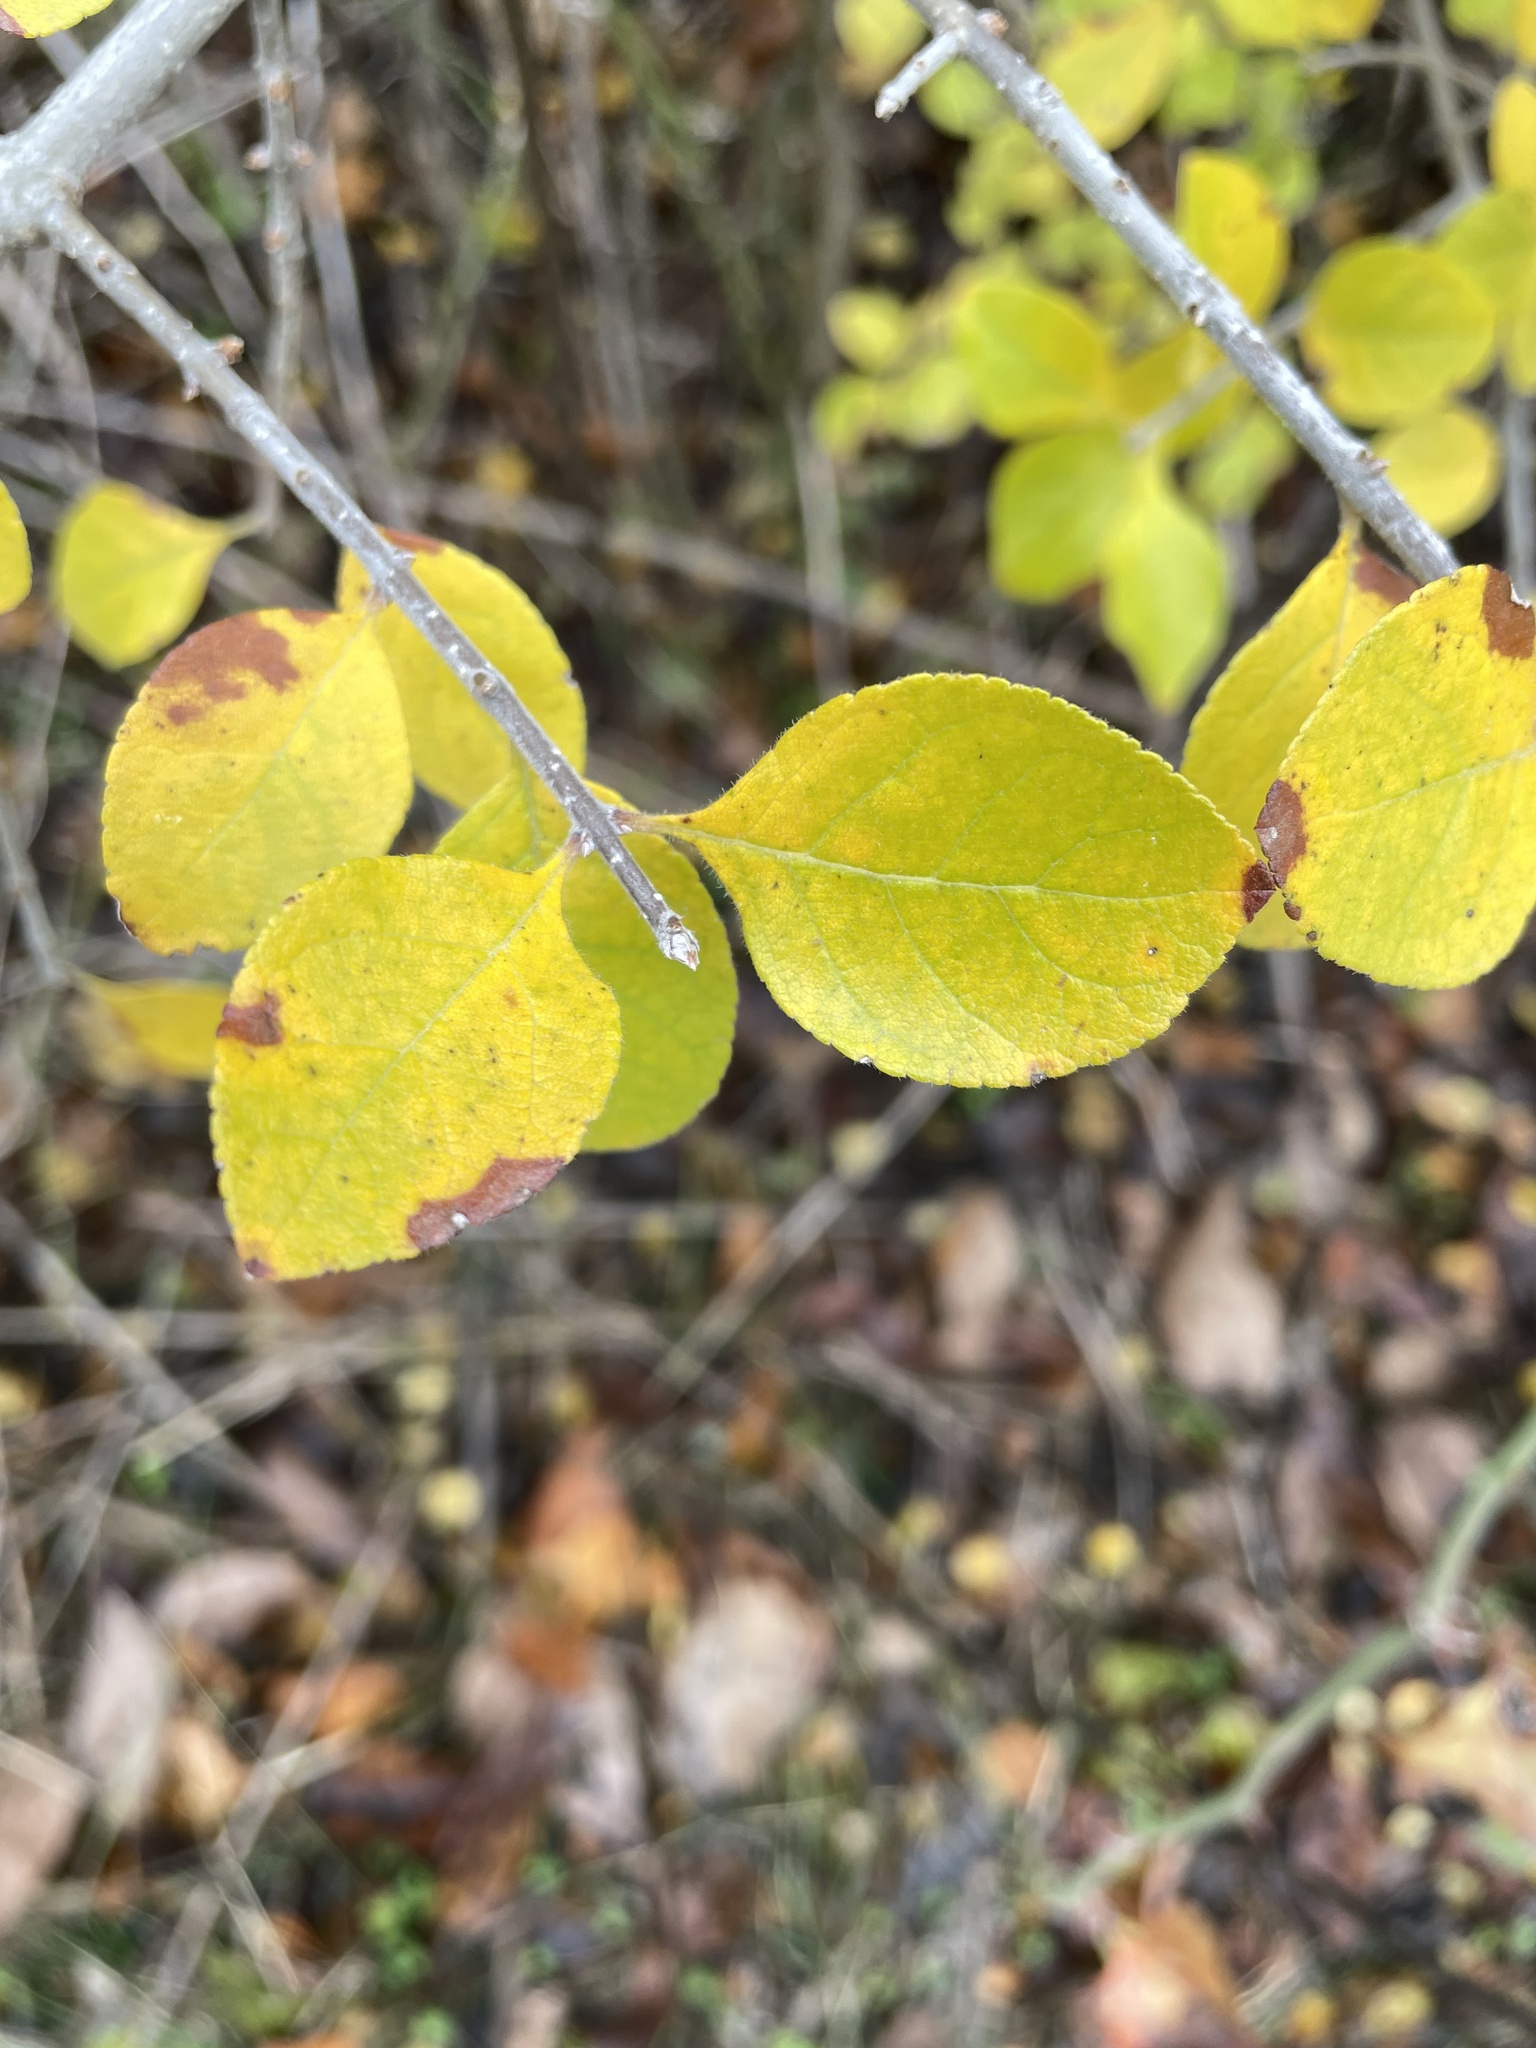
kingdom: Plantae
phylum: Tracheophyta
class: Magnoliopsida
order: Lamiales
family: Oleaceae
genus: Forestiera
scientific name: Forestiera pubescens
